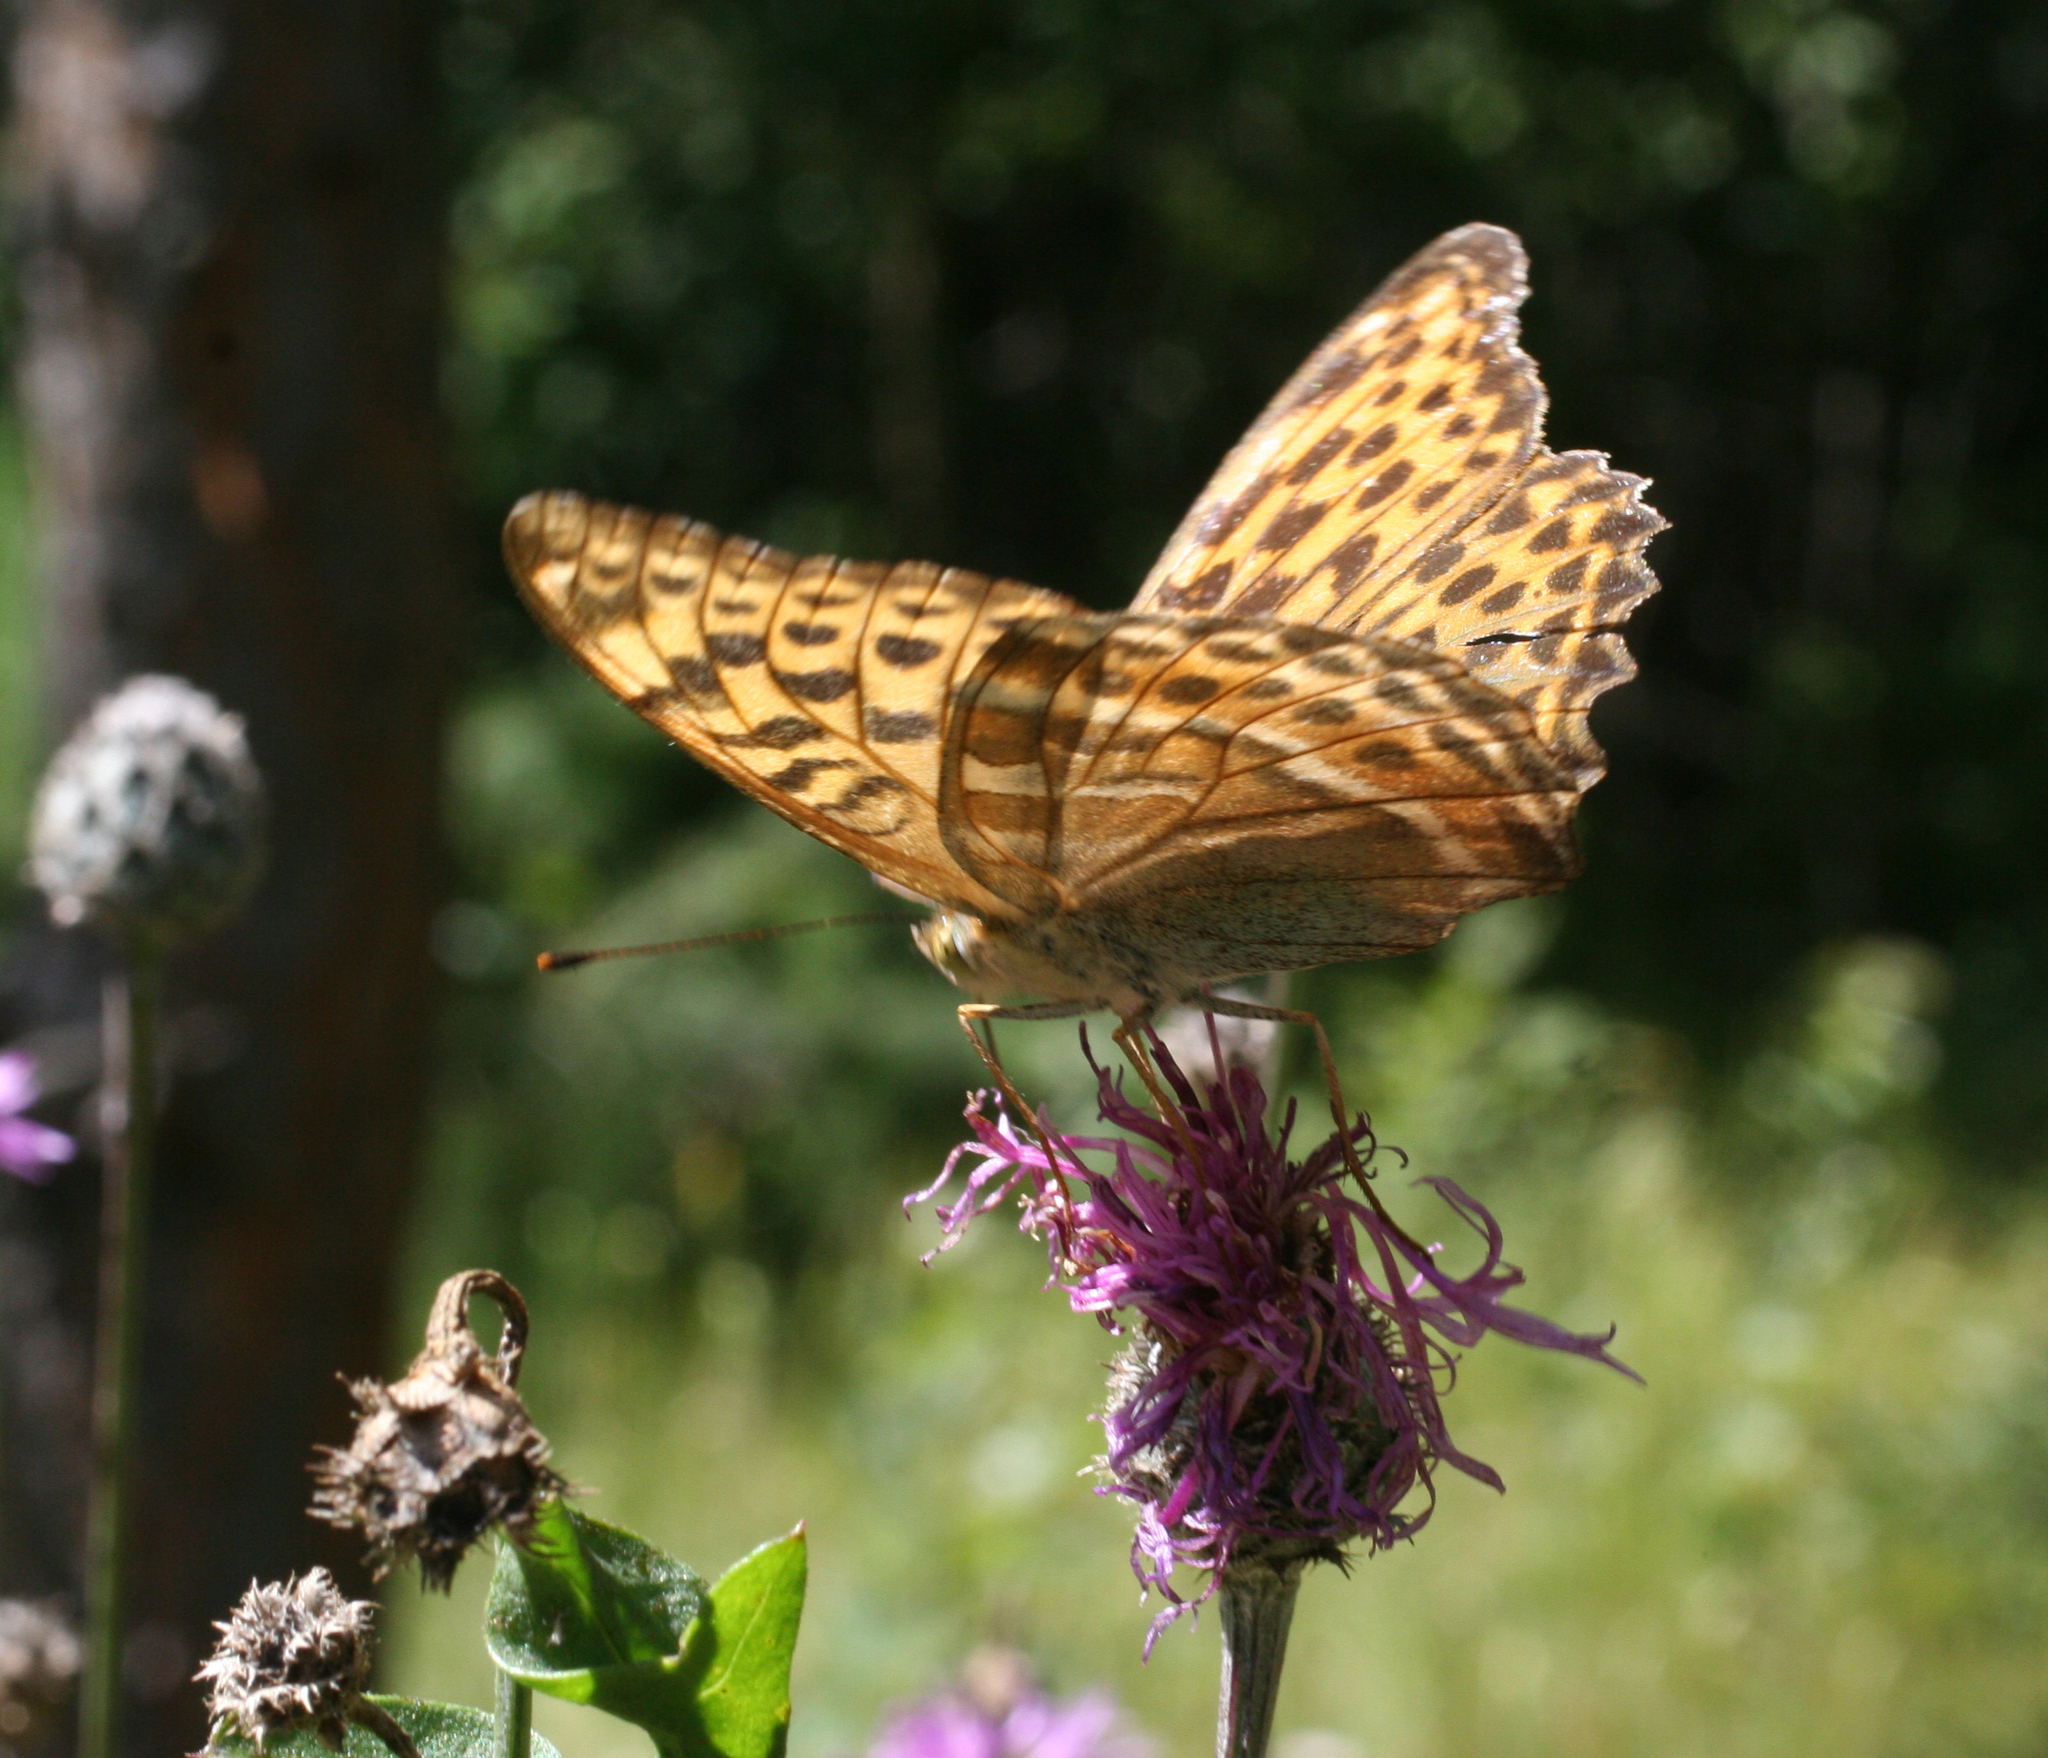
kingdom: Animalia
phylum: Arthropoda
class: Insecta
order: Lepidoptera
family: Nymphalidae
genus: Argynnis
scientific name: Argynnis paphia
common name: Silver-washed fritillary
